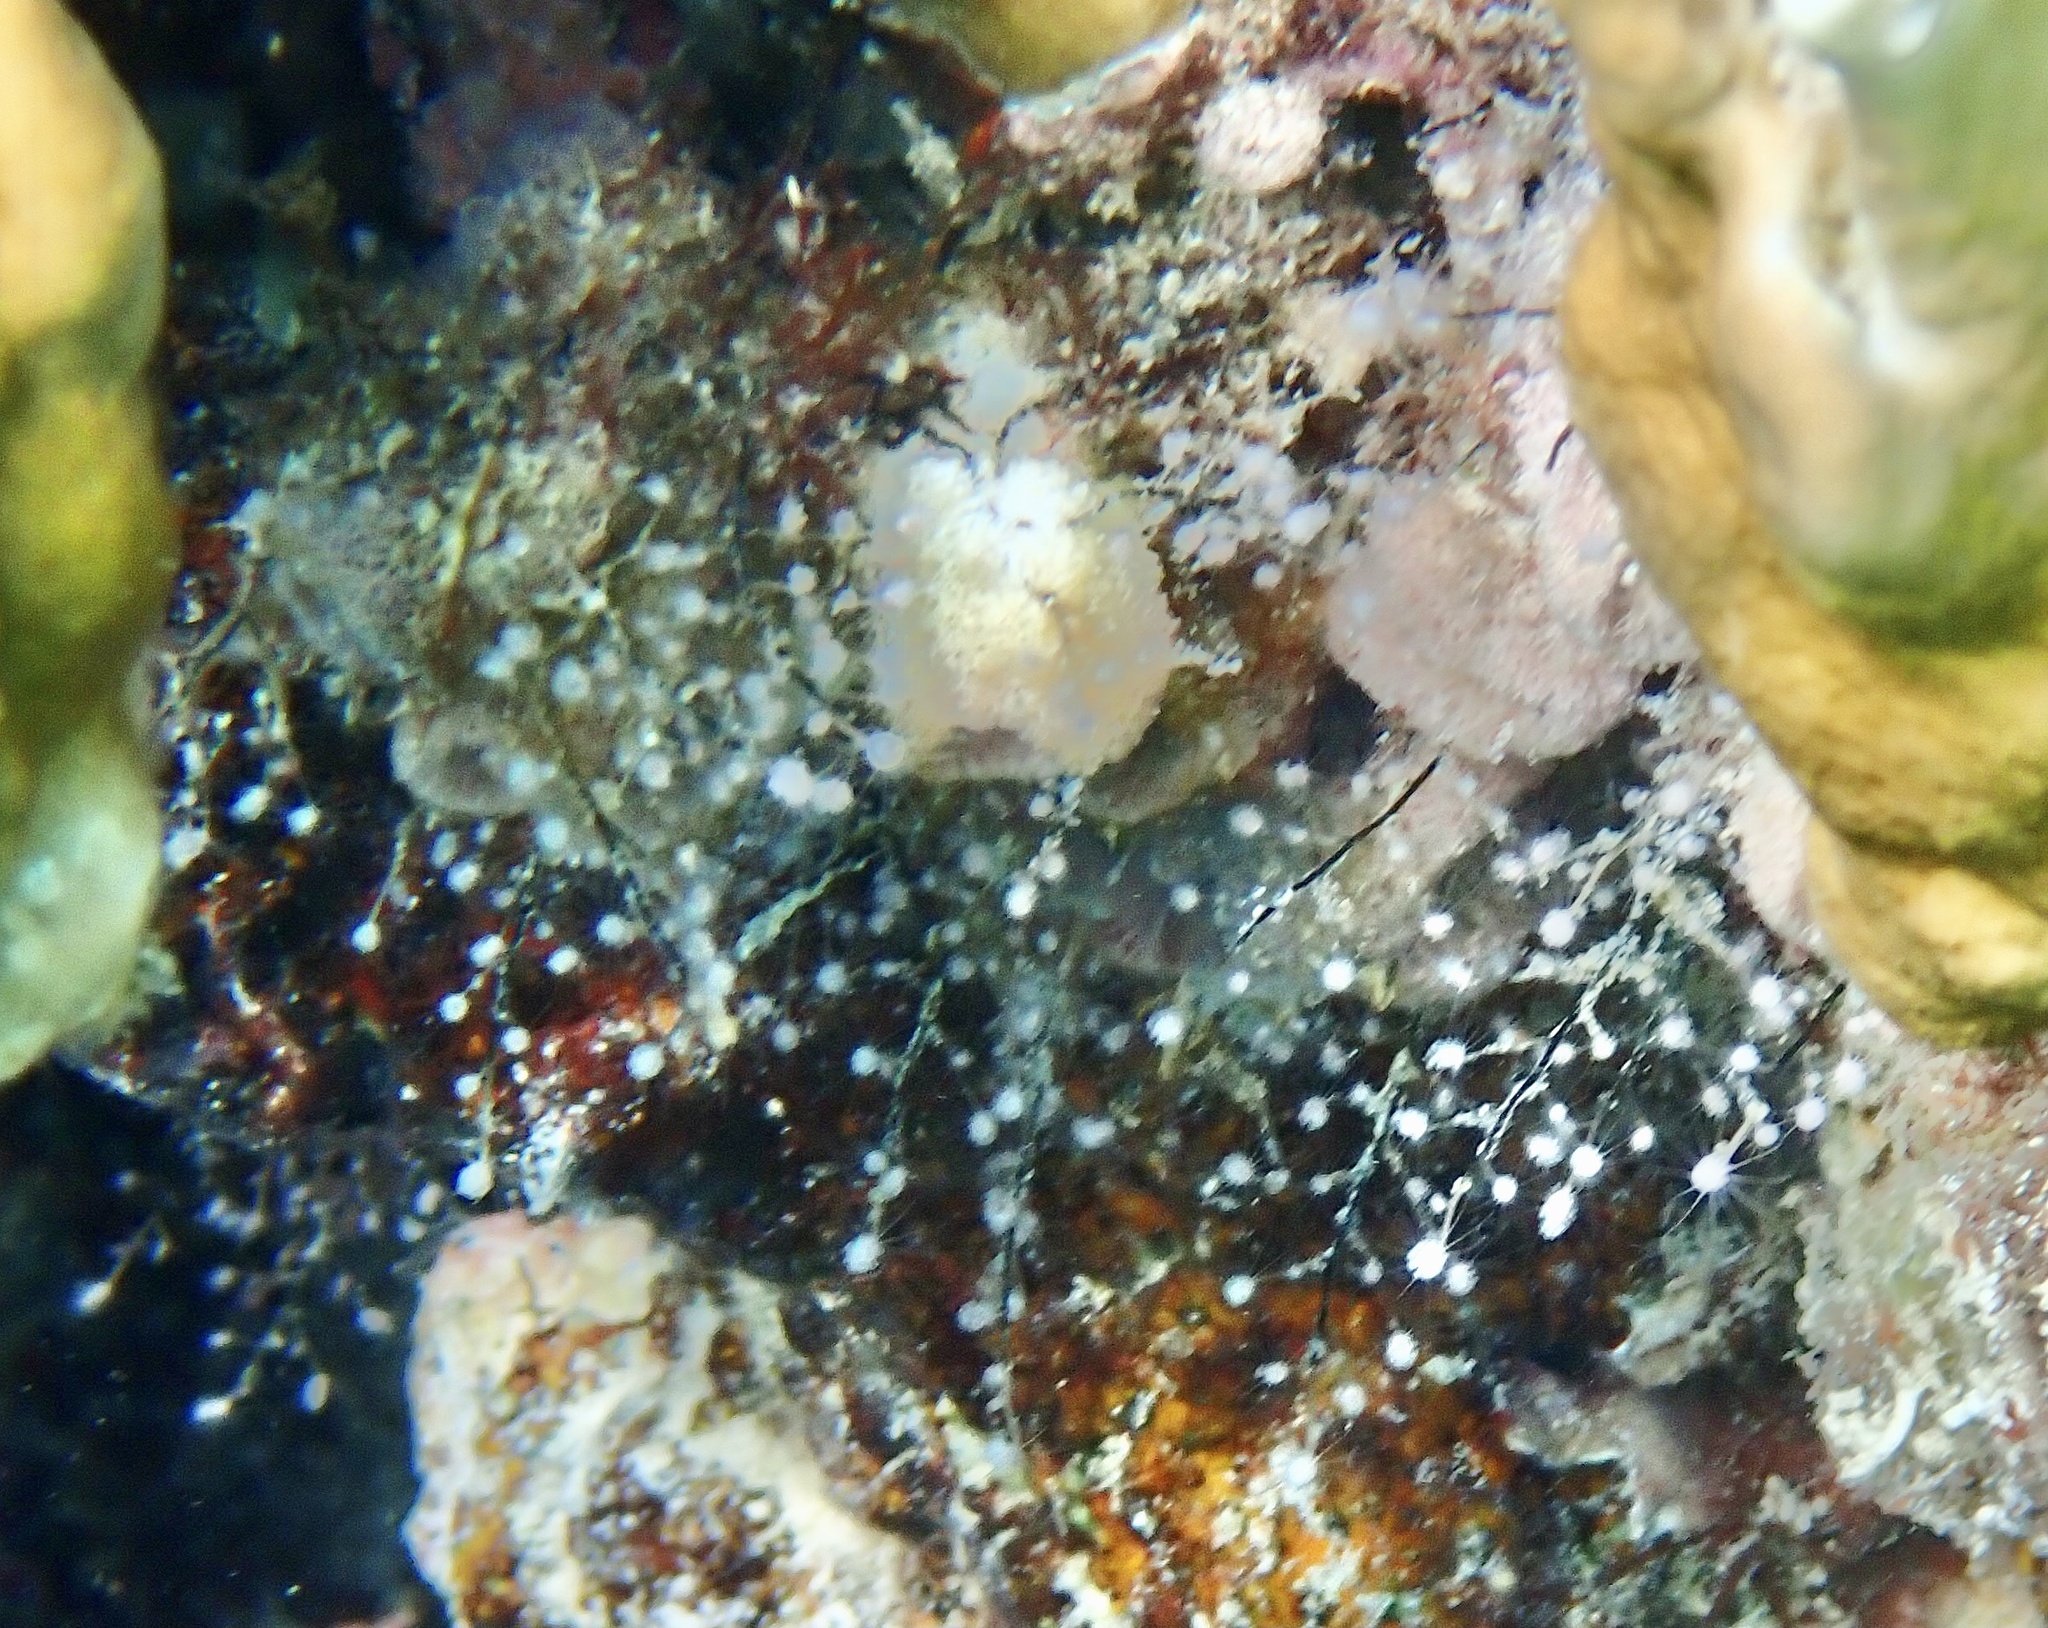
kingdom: Animalia
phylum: Cnidaria
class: Hydrozoa
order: Anthoathecata
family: Pennariidae
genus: Pennaria
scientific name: Pennaria disticha
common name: Feather hydroid
